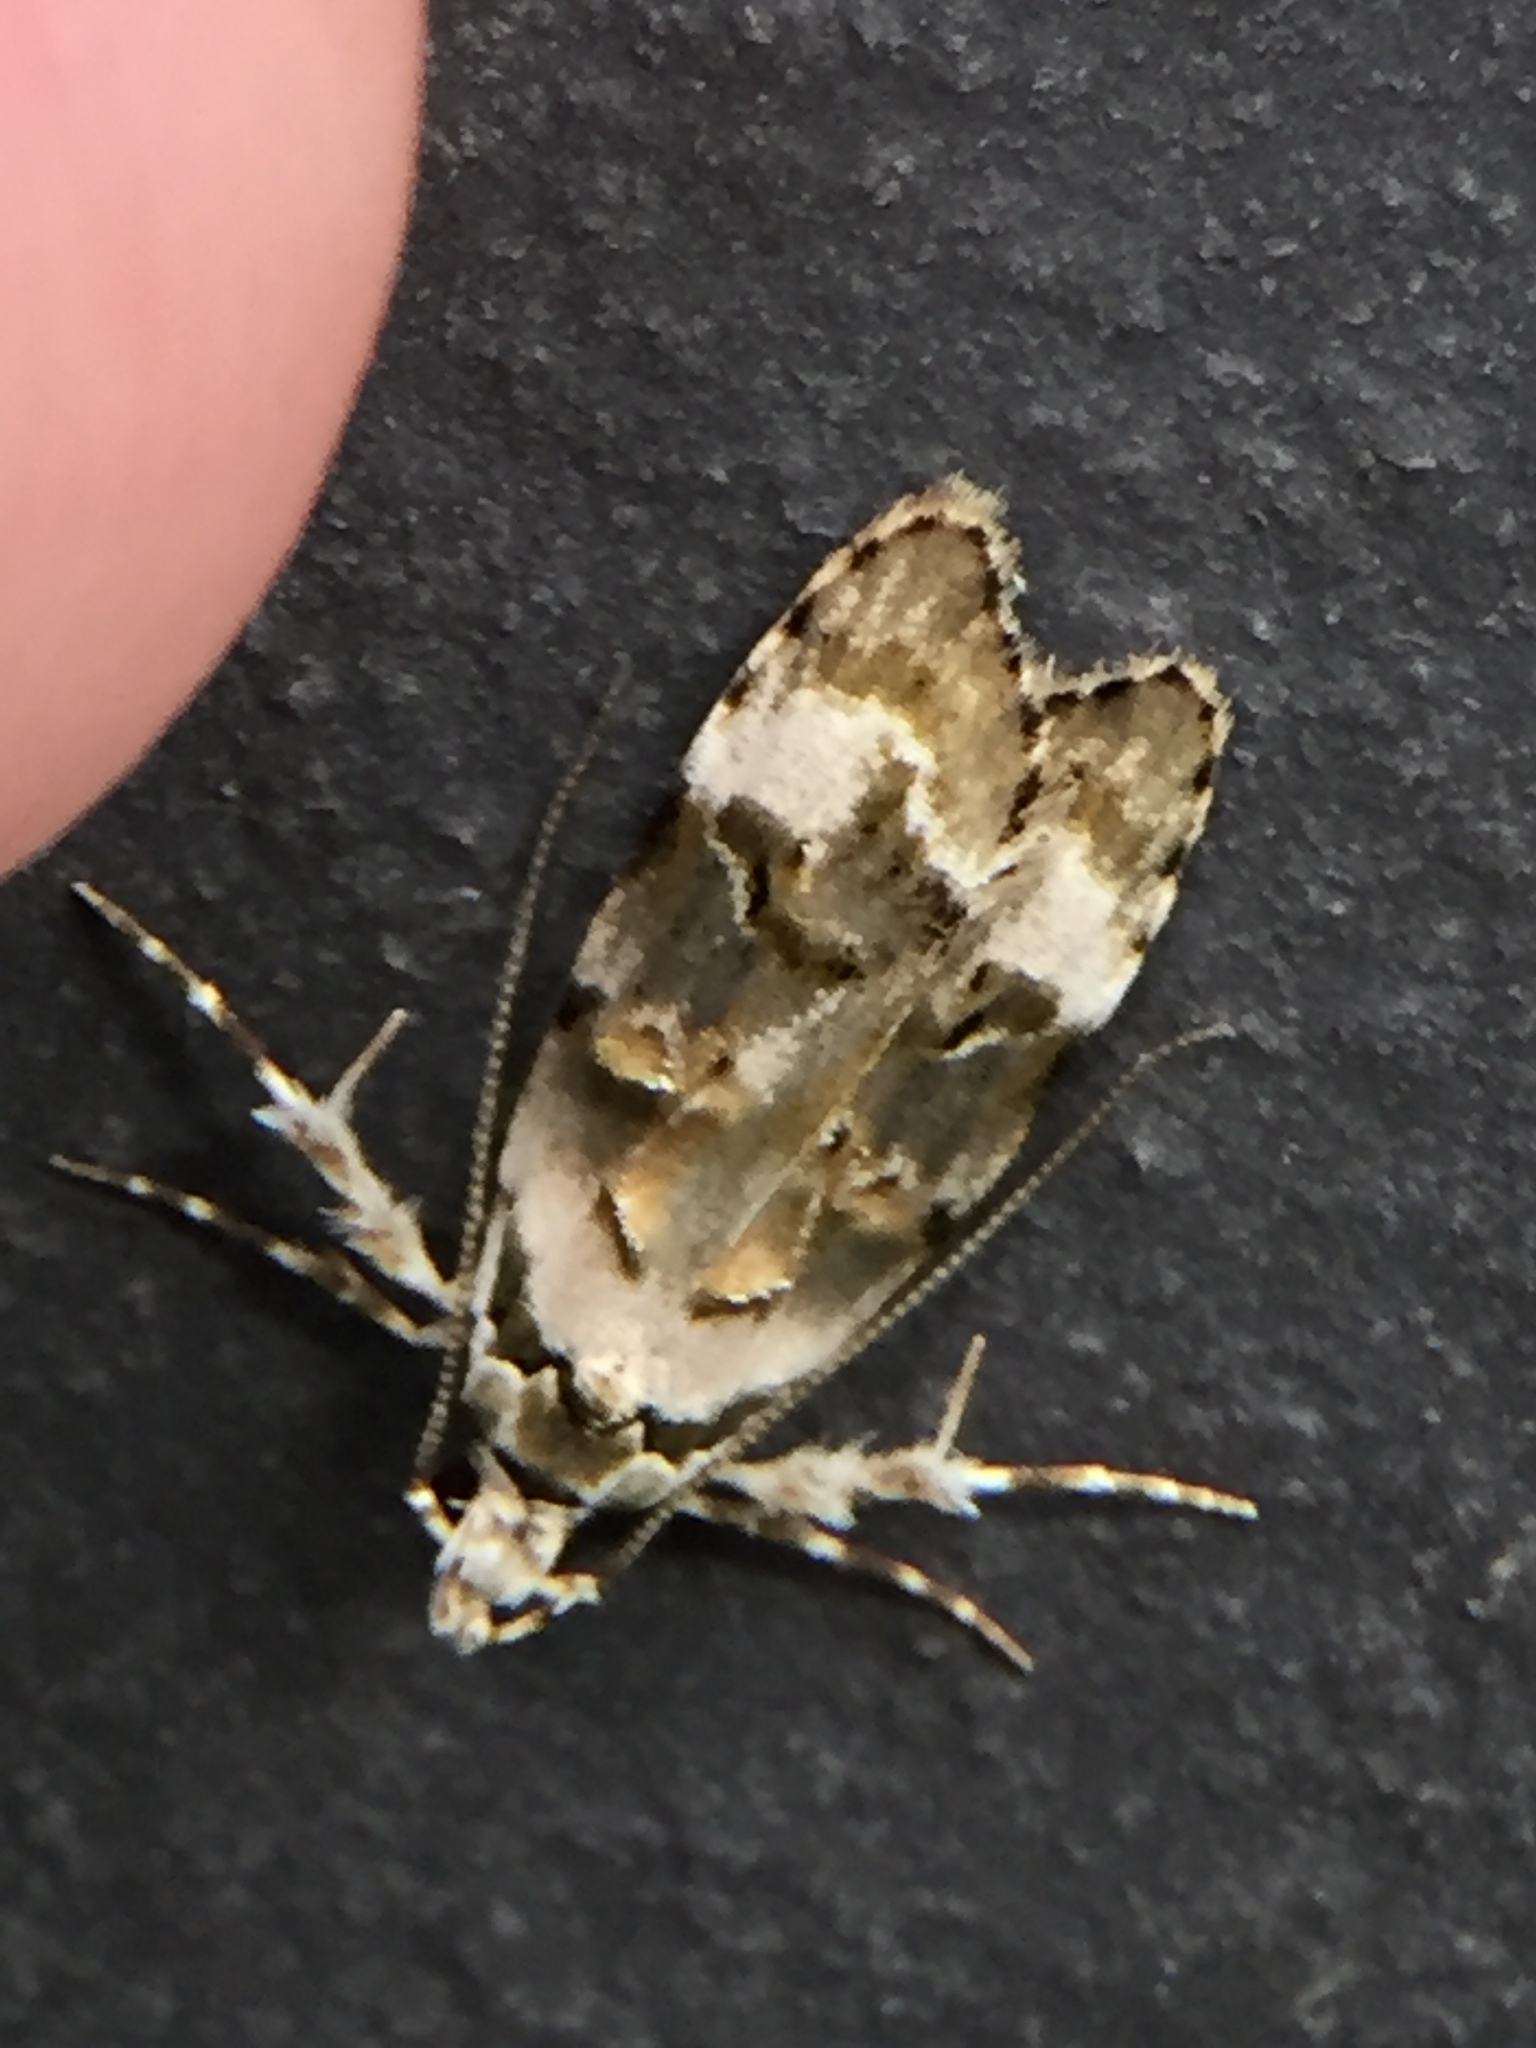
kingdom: Animalia
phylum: Arthropoda
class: Insecta
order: Lepidoptera
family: Oecophoridae
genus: Izatha
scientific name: Izatha prasophyta
